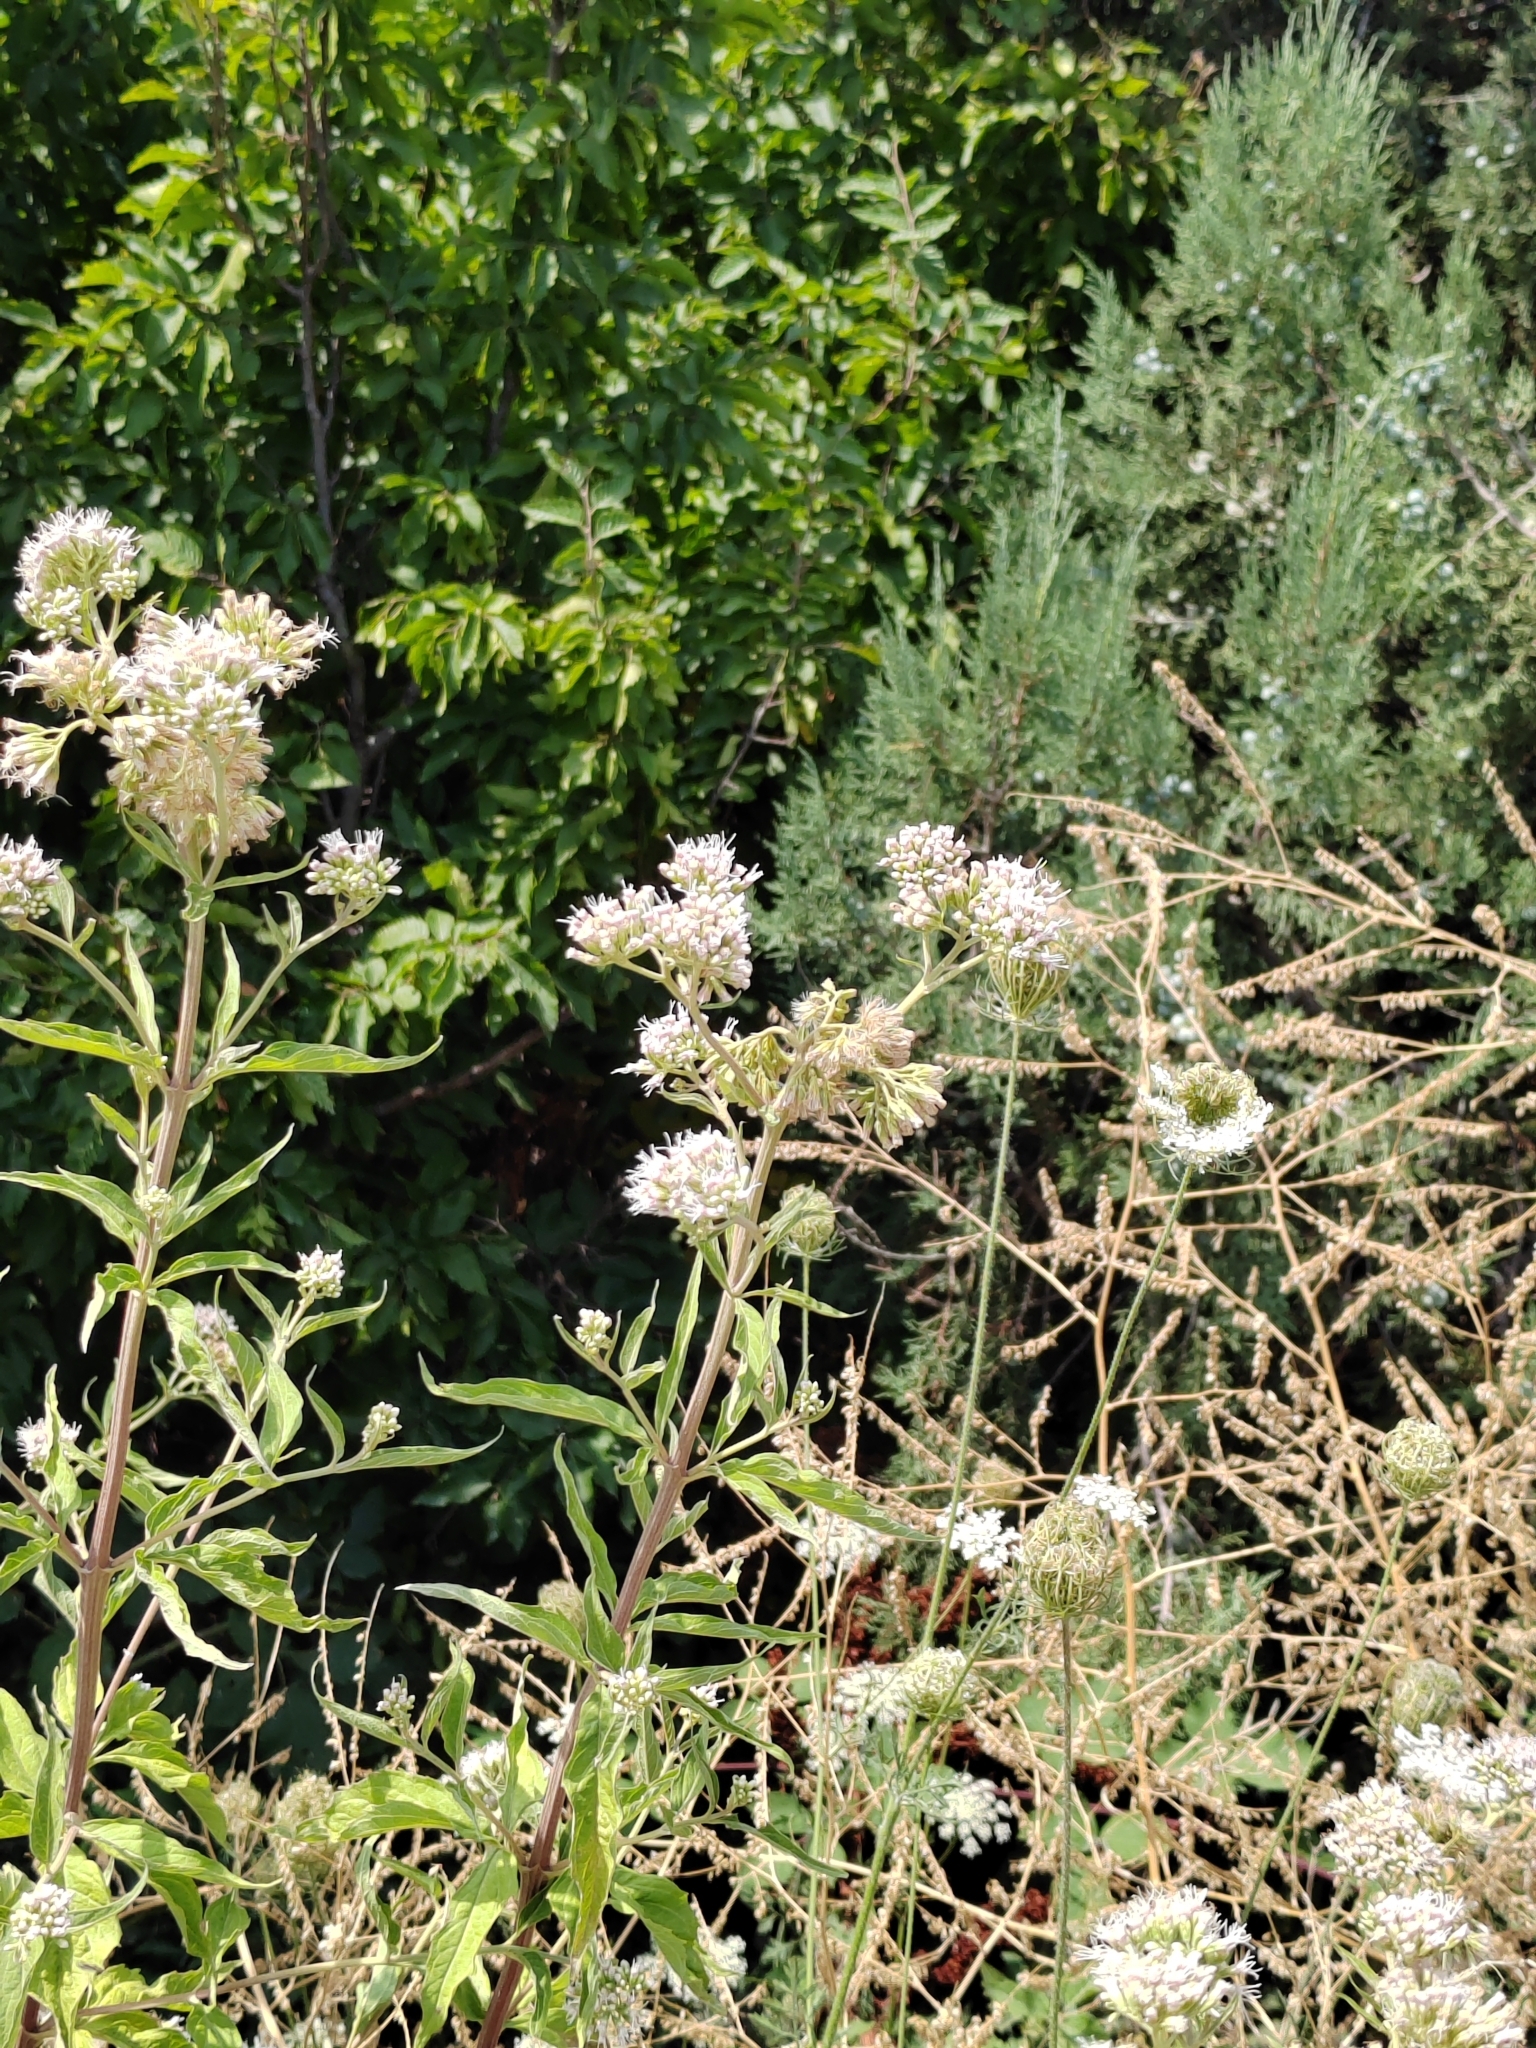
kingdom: Plantae
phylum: Tracheophyta
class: Magnoliopsida
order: Asterales
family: Asteraceae
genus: Eupatorium
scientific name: Eupatorium cannabinum
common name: Hemp-agrimony
